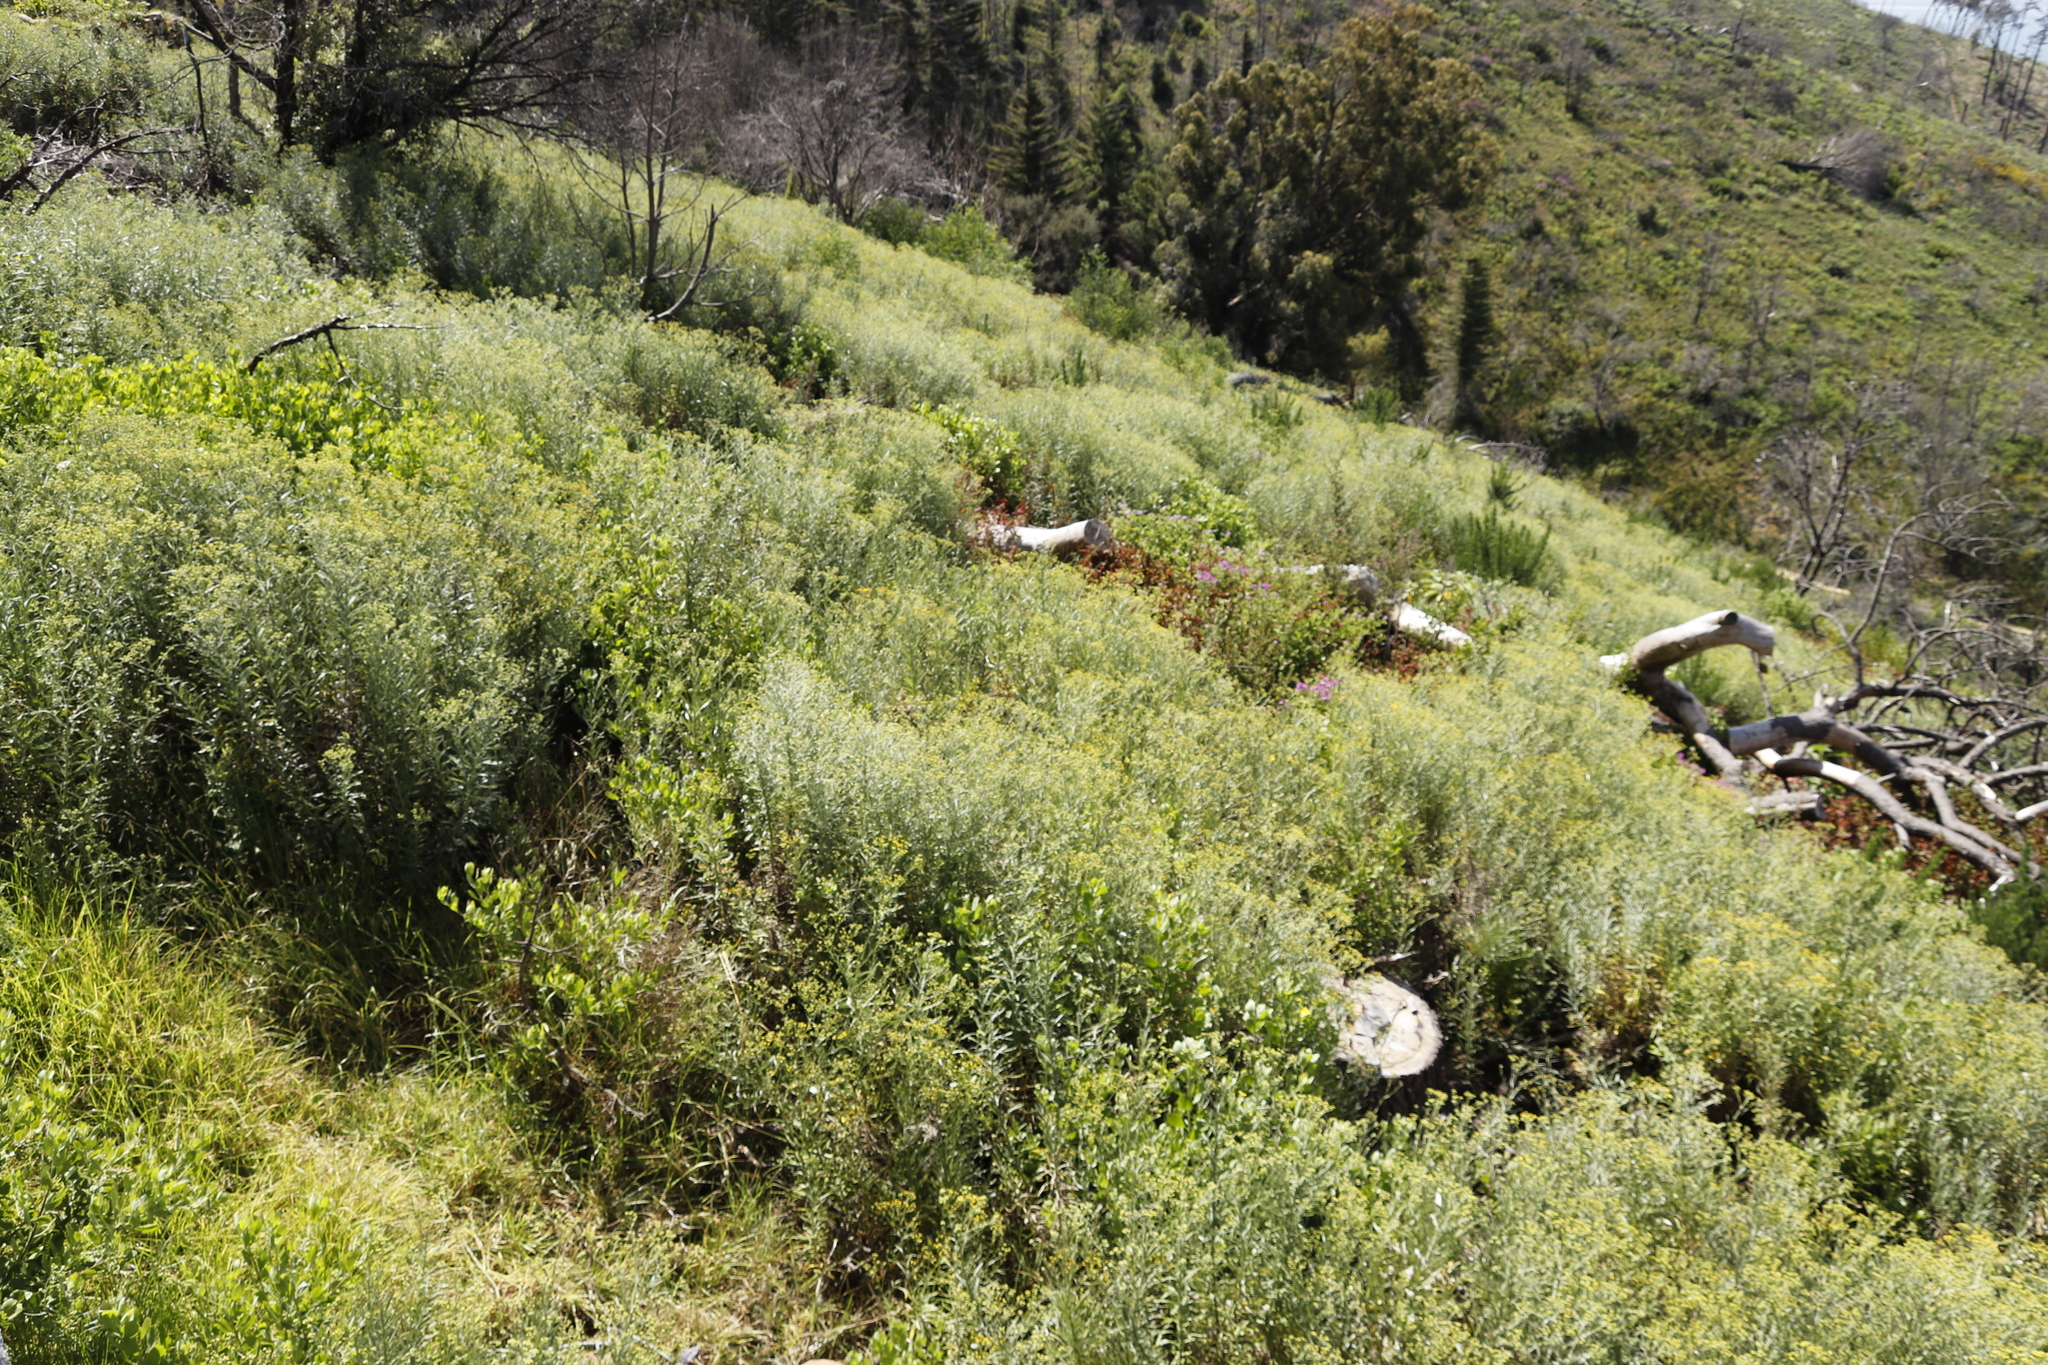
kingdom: Plantae
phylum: Tracheophyta
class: Magnoliopsida
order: Asterales
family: Asteraceae
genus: Senecio
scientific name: Senecio pterophorus
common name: Shoddy ragwort
